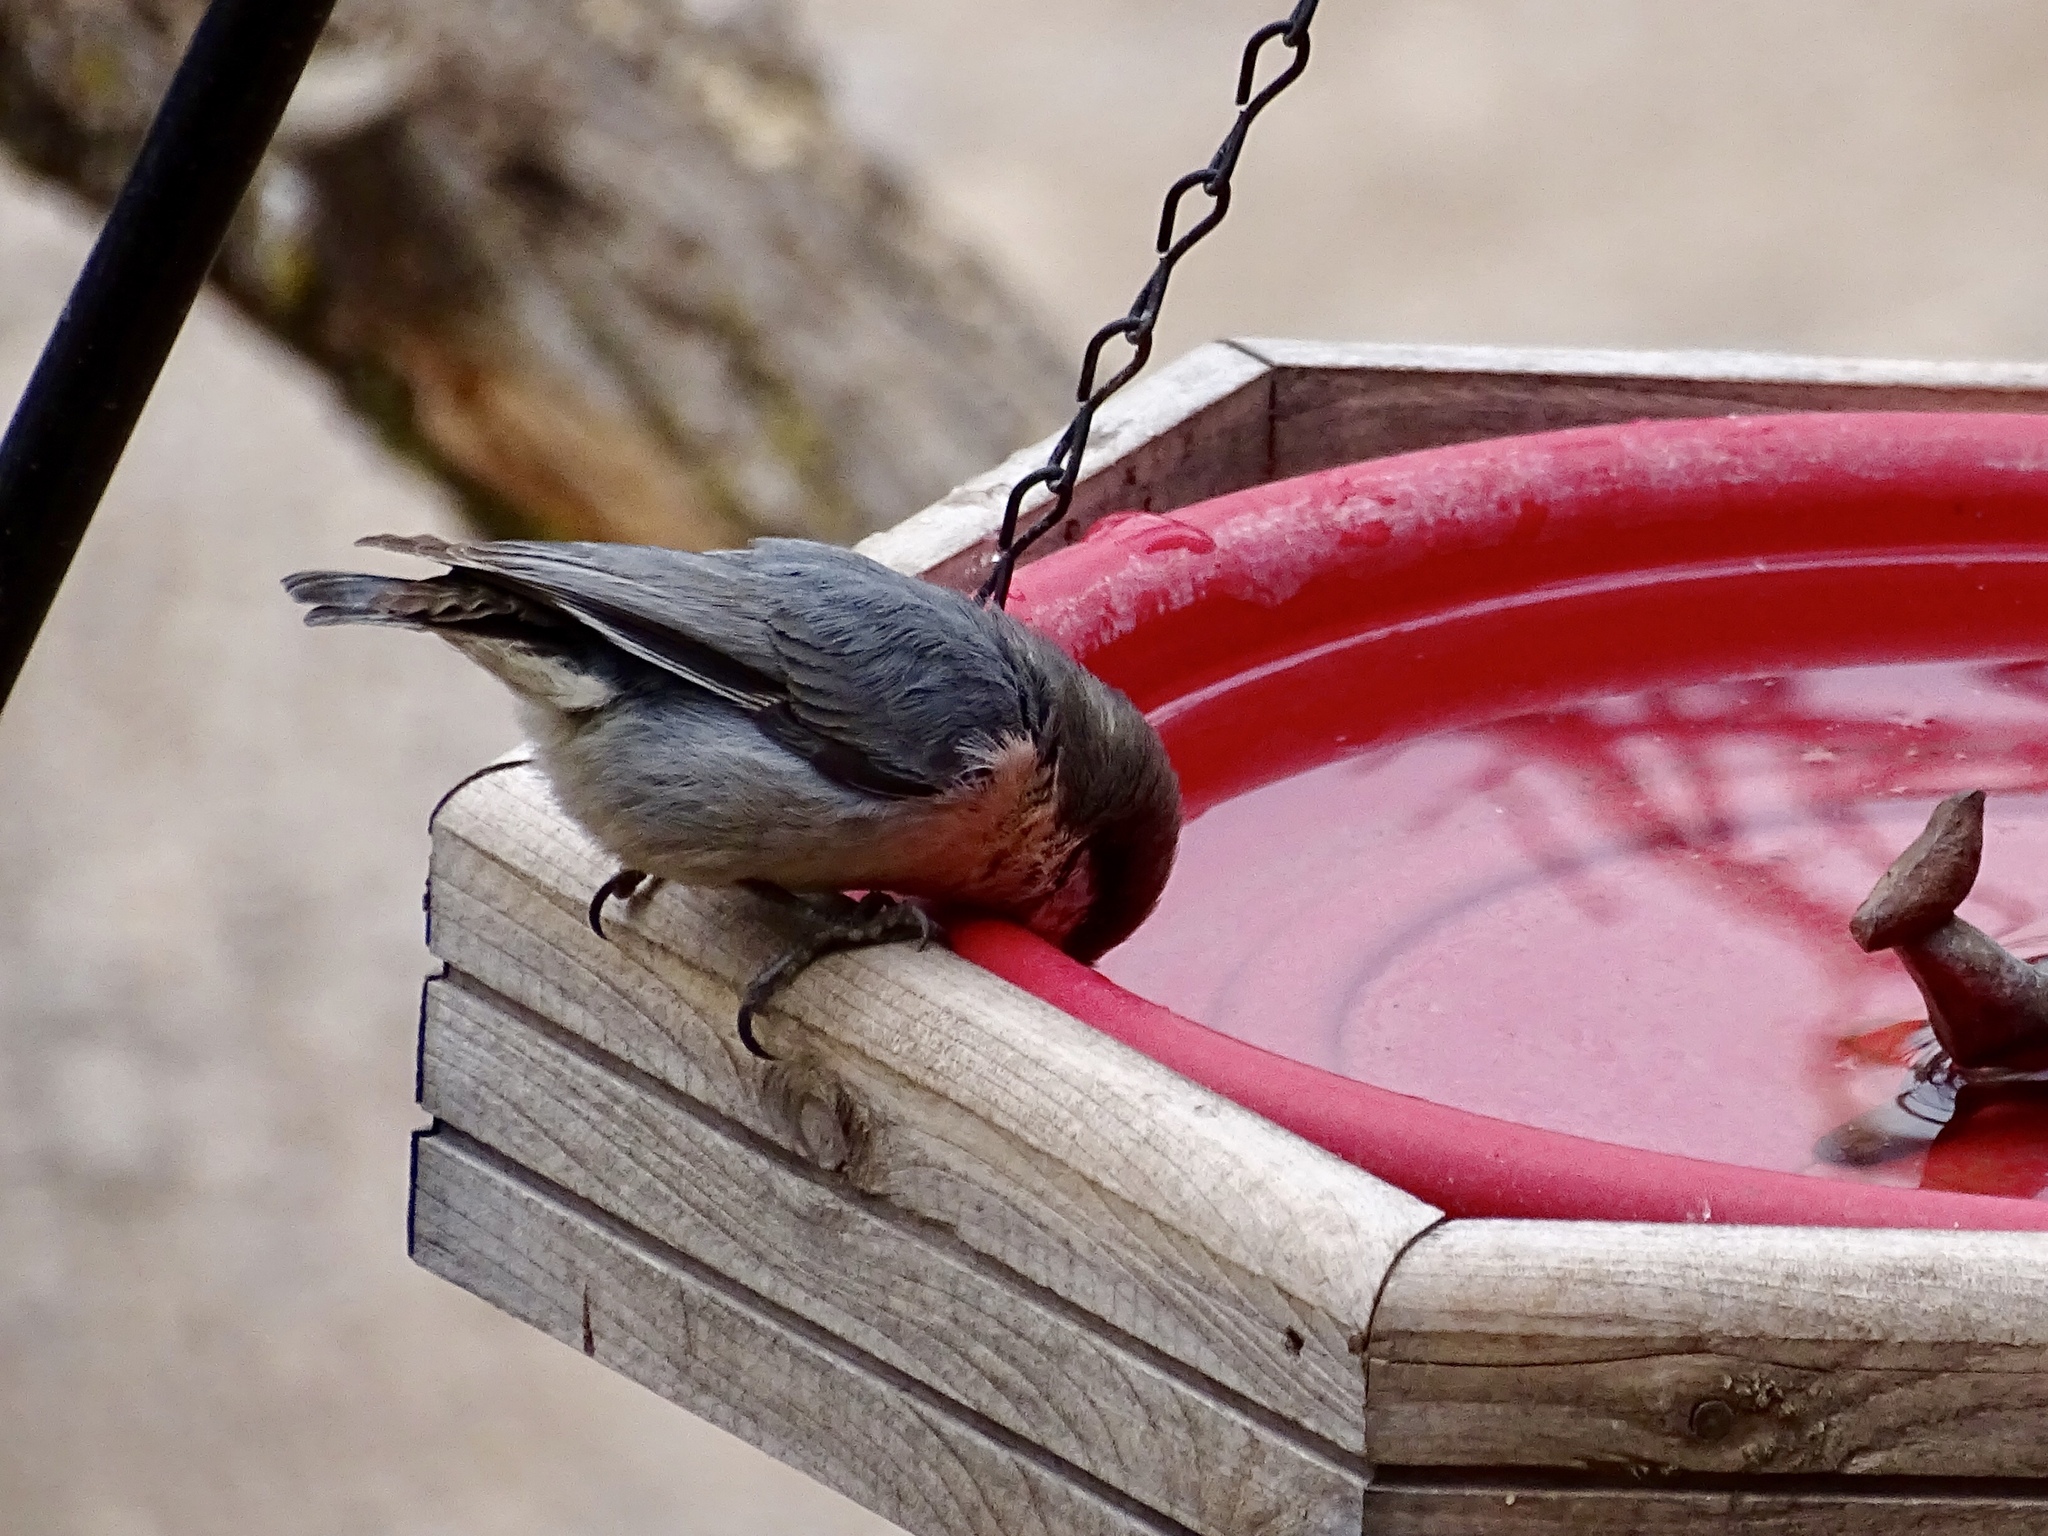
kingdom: Animalia
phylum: Chordata
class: Aves
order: Passeriformes
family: Sittidae
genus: Sitta
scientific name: Sitta pygmaea
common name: Pygmy nuthatch
